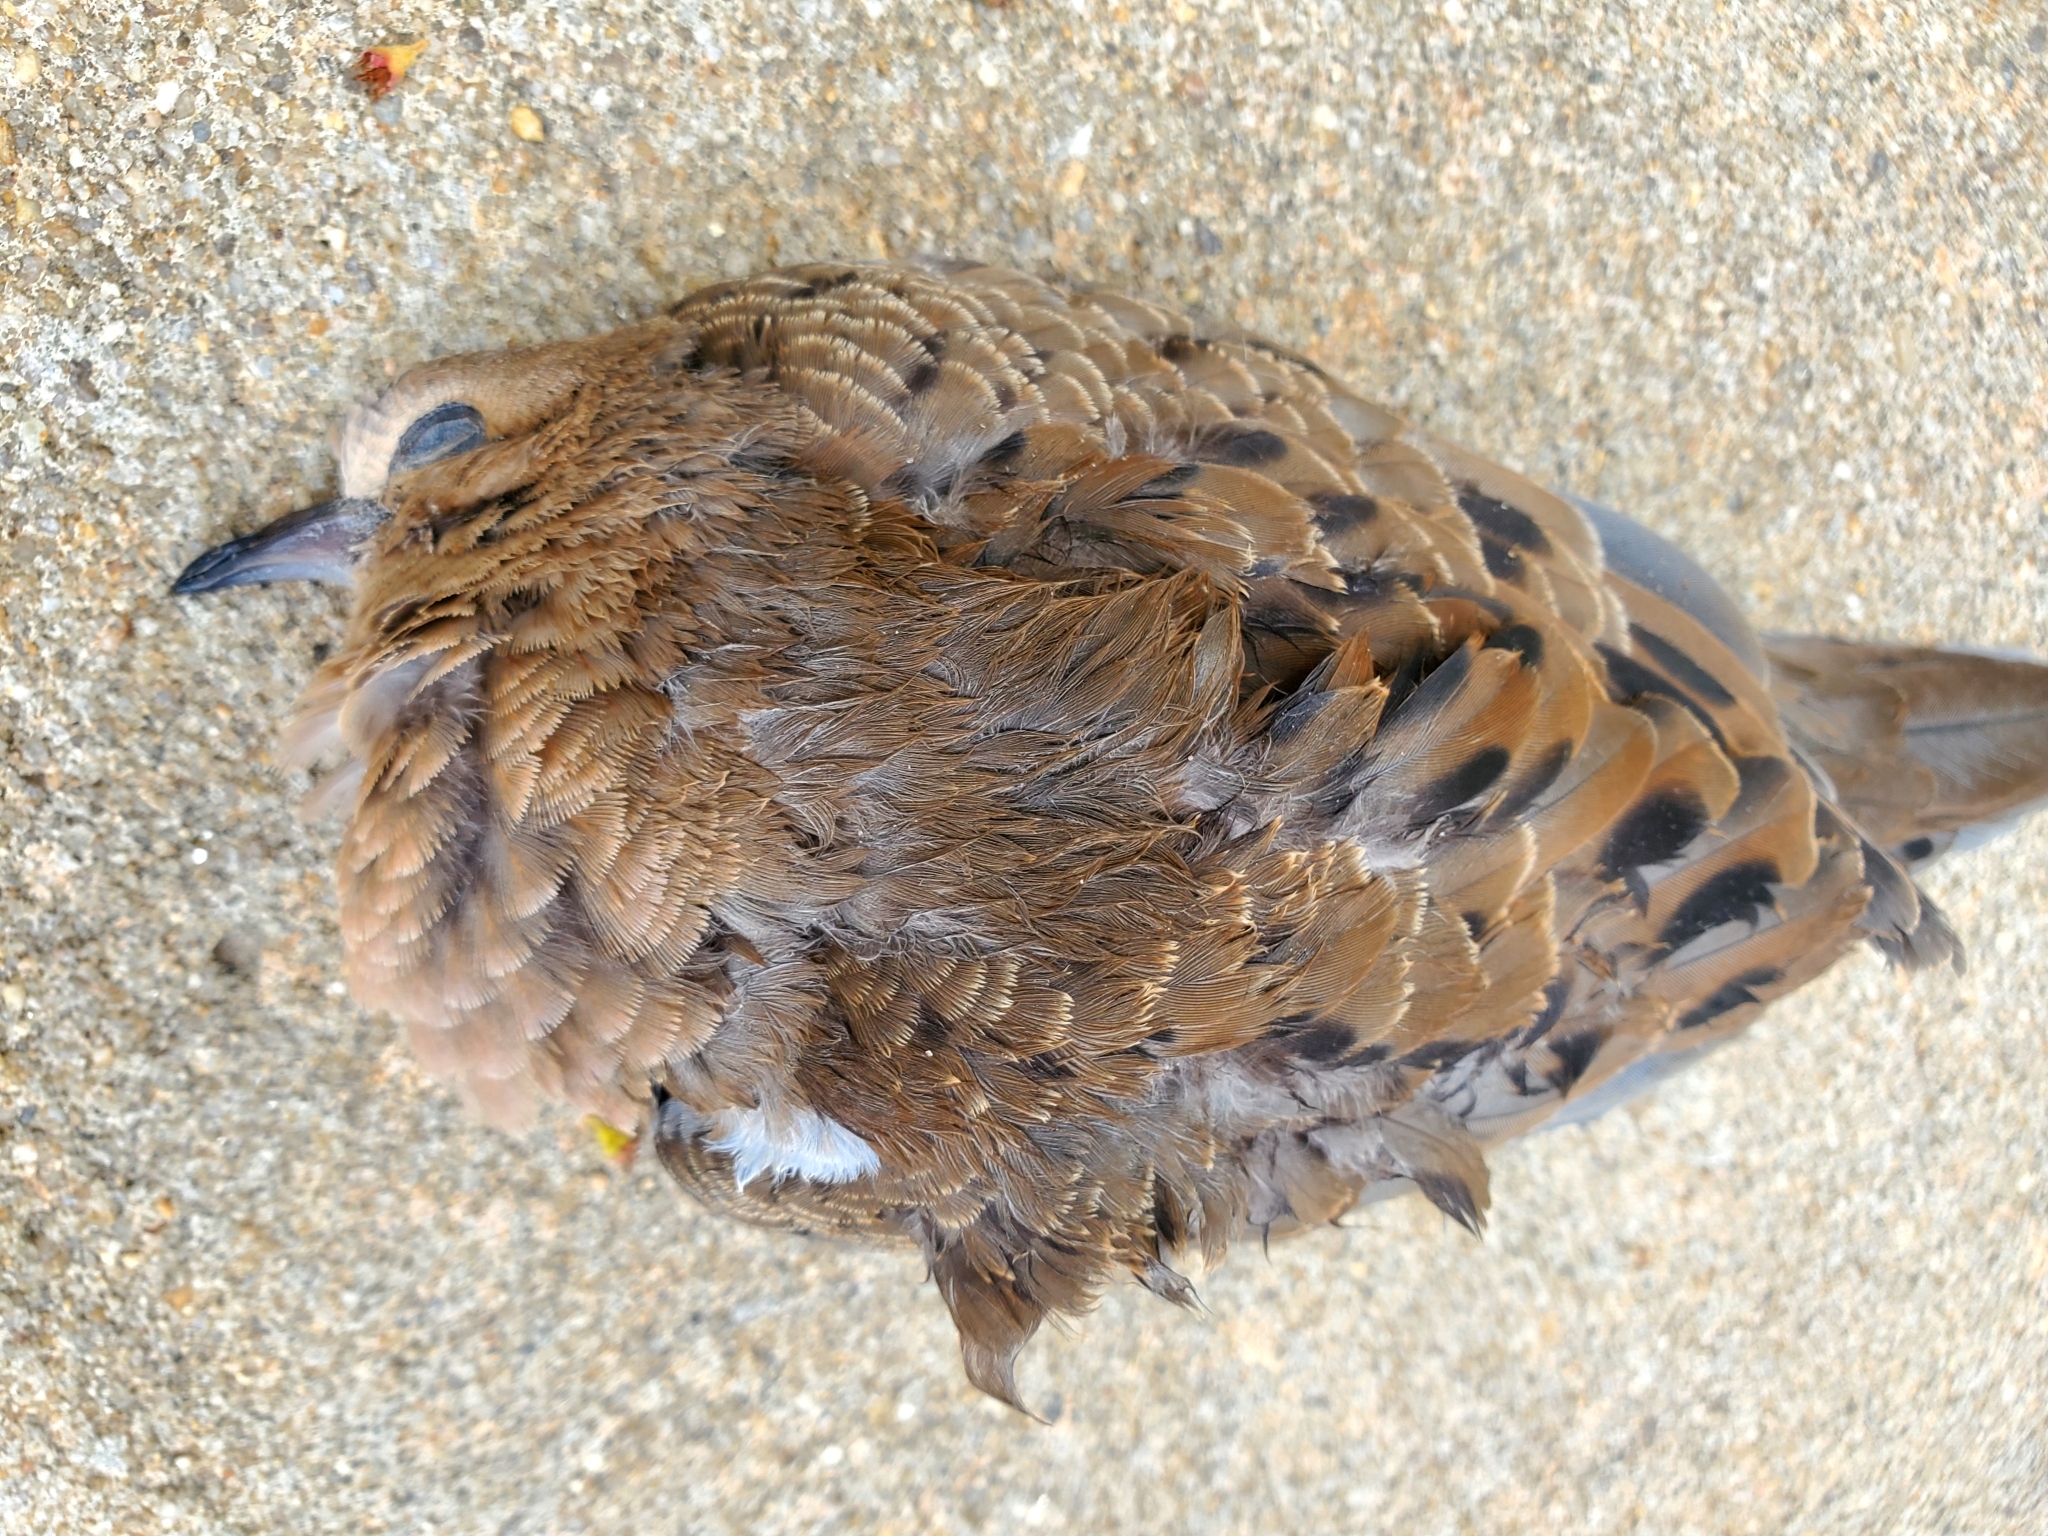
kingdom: Animalia
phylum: Chordata
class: Aves
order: Columbiformes
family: Columbidae
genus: Zenaida
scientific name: Zenaida macroura
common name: Mourning dove
